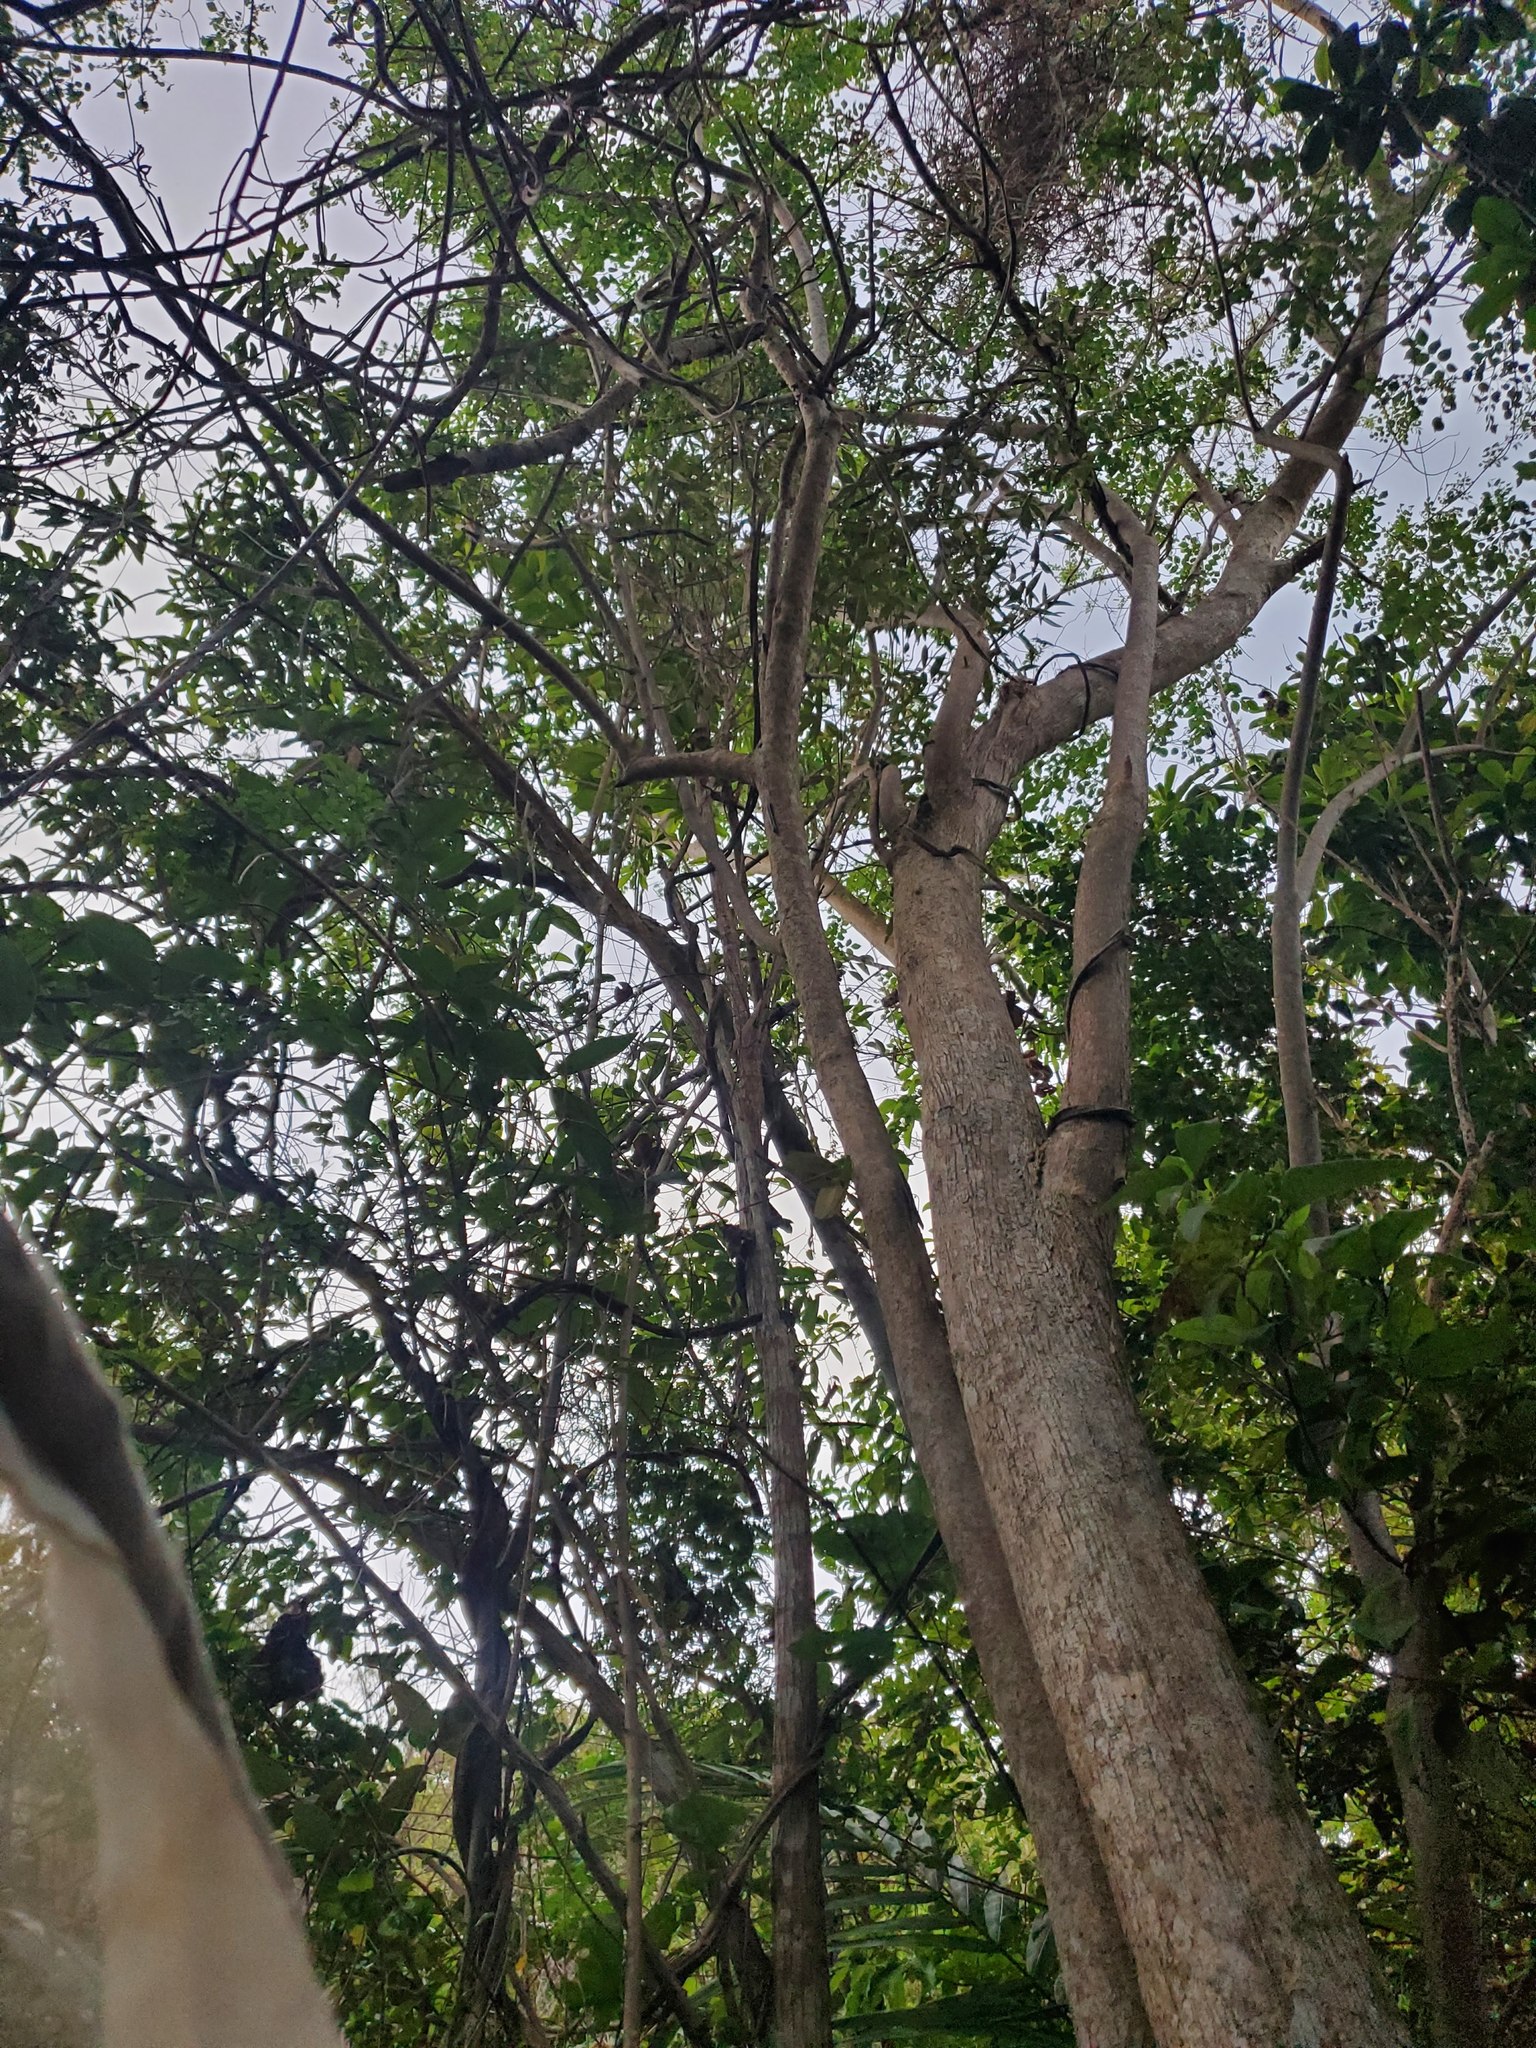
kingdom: Plantae
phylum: Tracheophyta
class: Magnoliopsida
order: Fabales
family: Fabaceae
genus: Gliricidia
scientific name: Gliricidia sepium
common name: Quickstick
